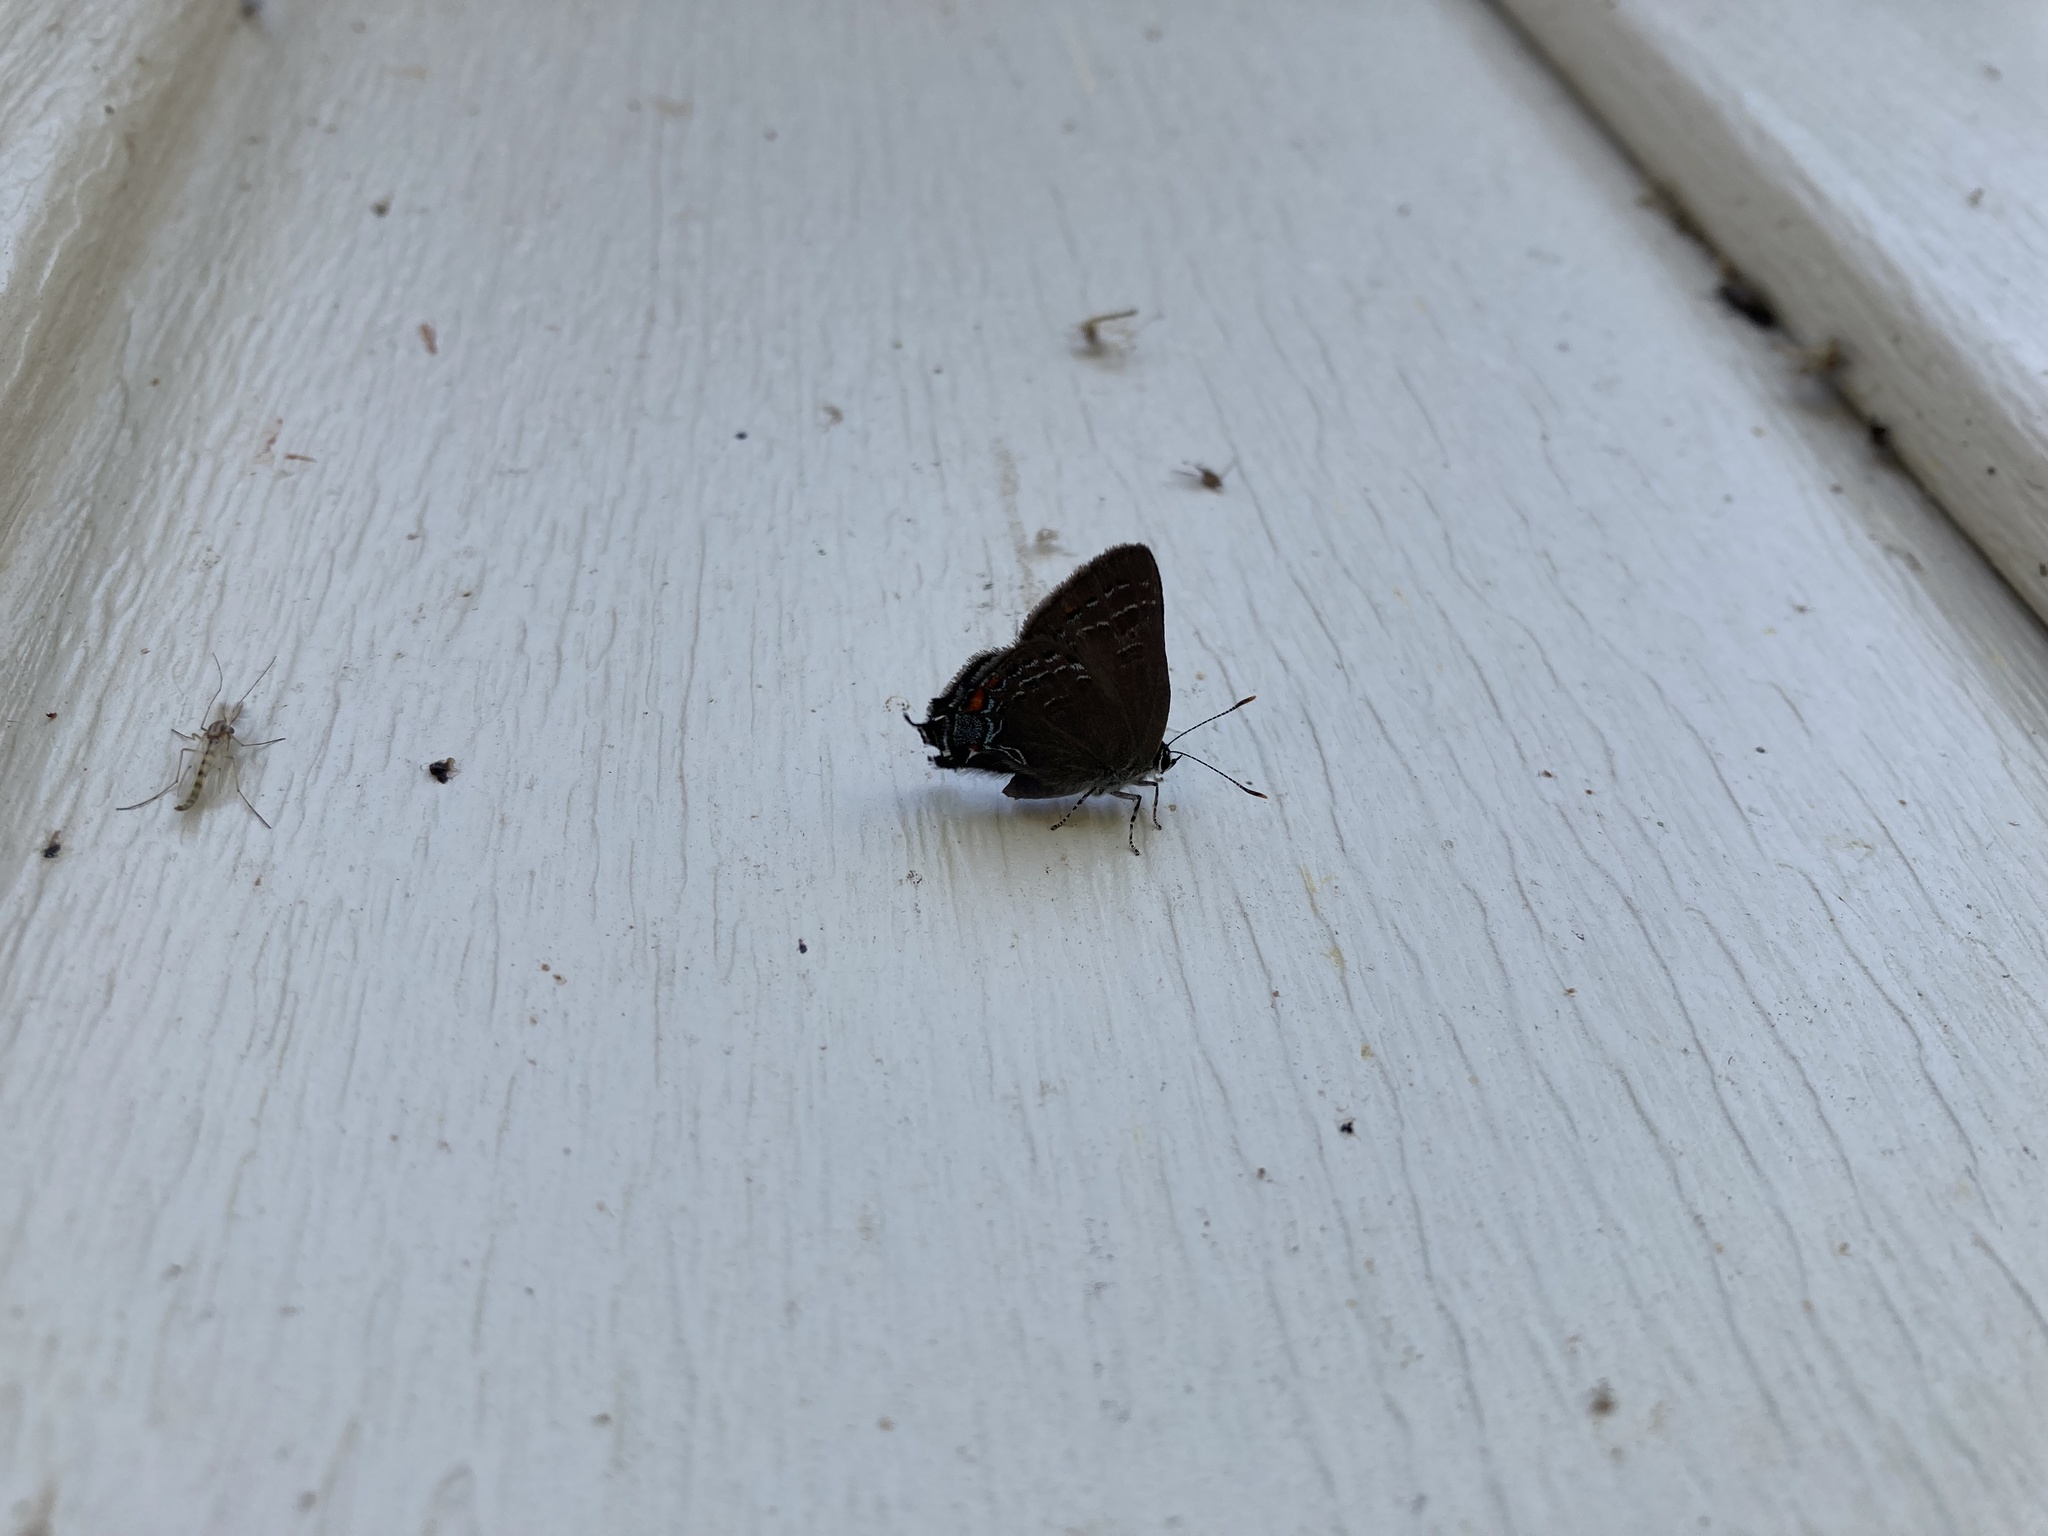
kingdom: Animalia
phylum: Arthropoda
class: Insecta
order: Lepidoptera
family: Lycaenidae
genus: Satyrium
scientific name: Satyrium calanus
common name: Banded hairstreak
